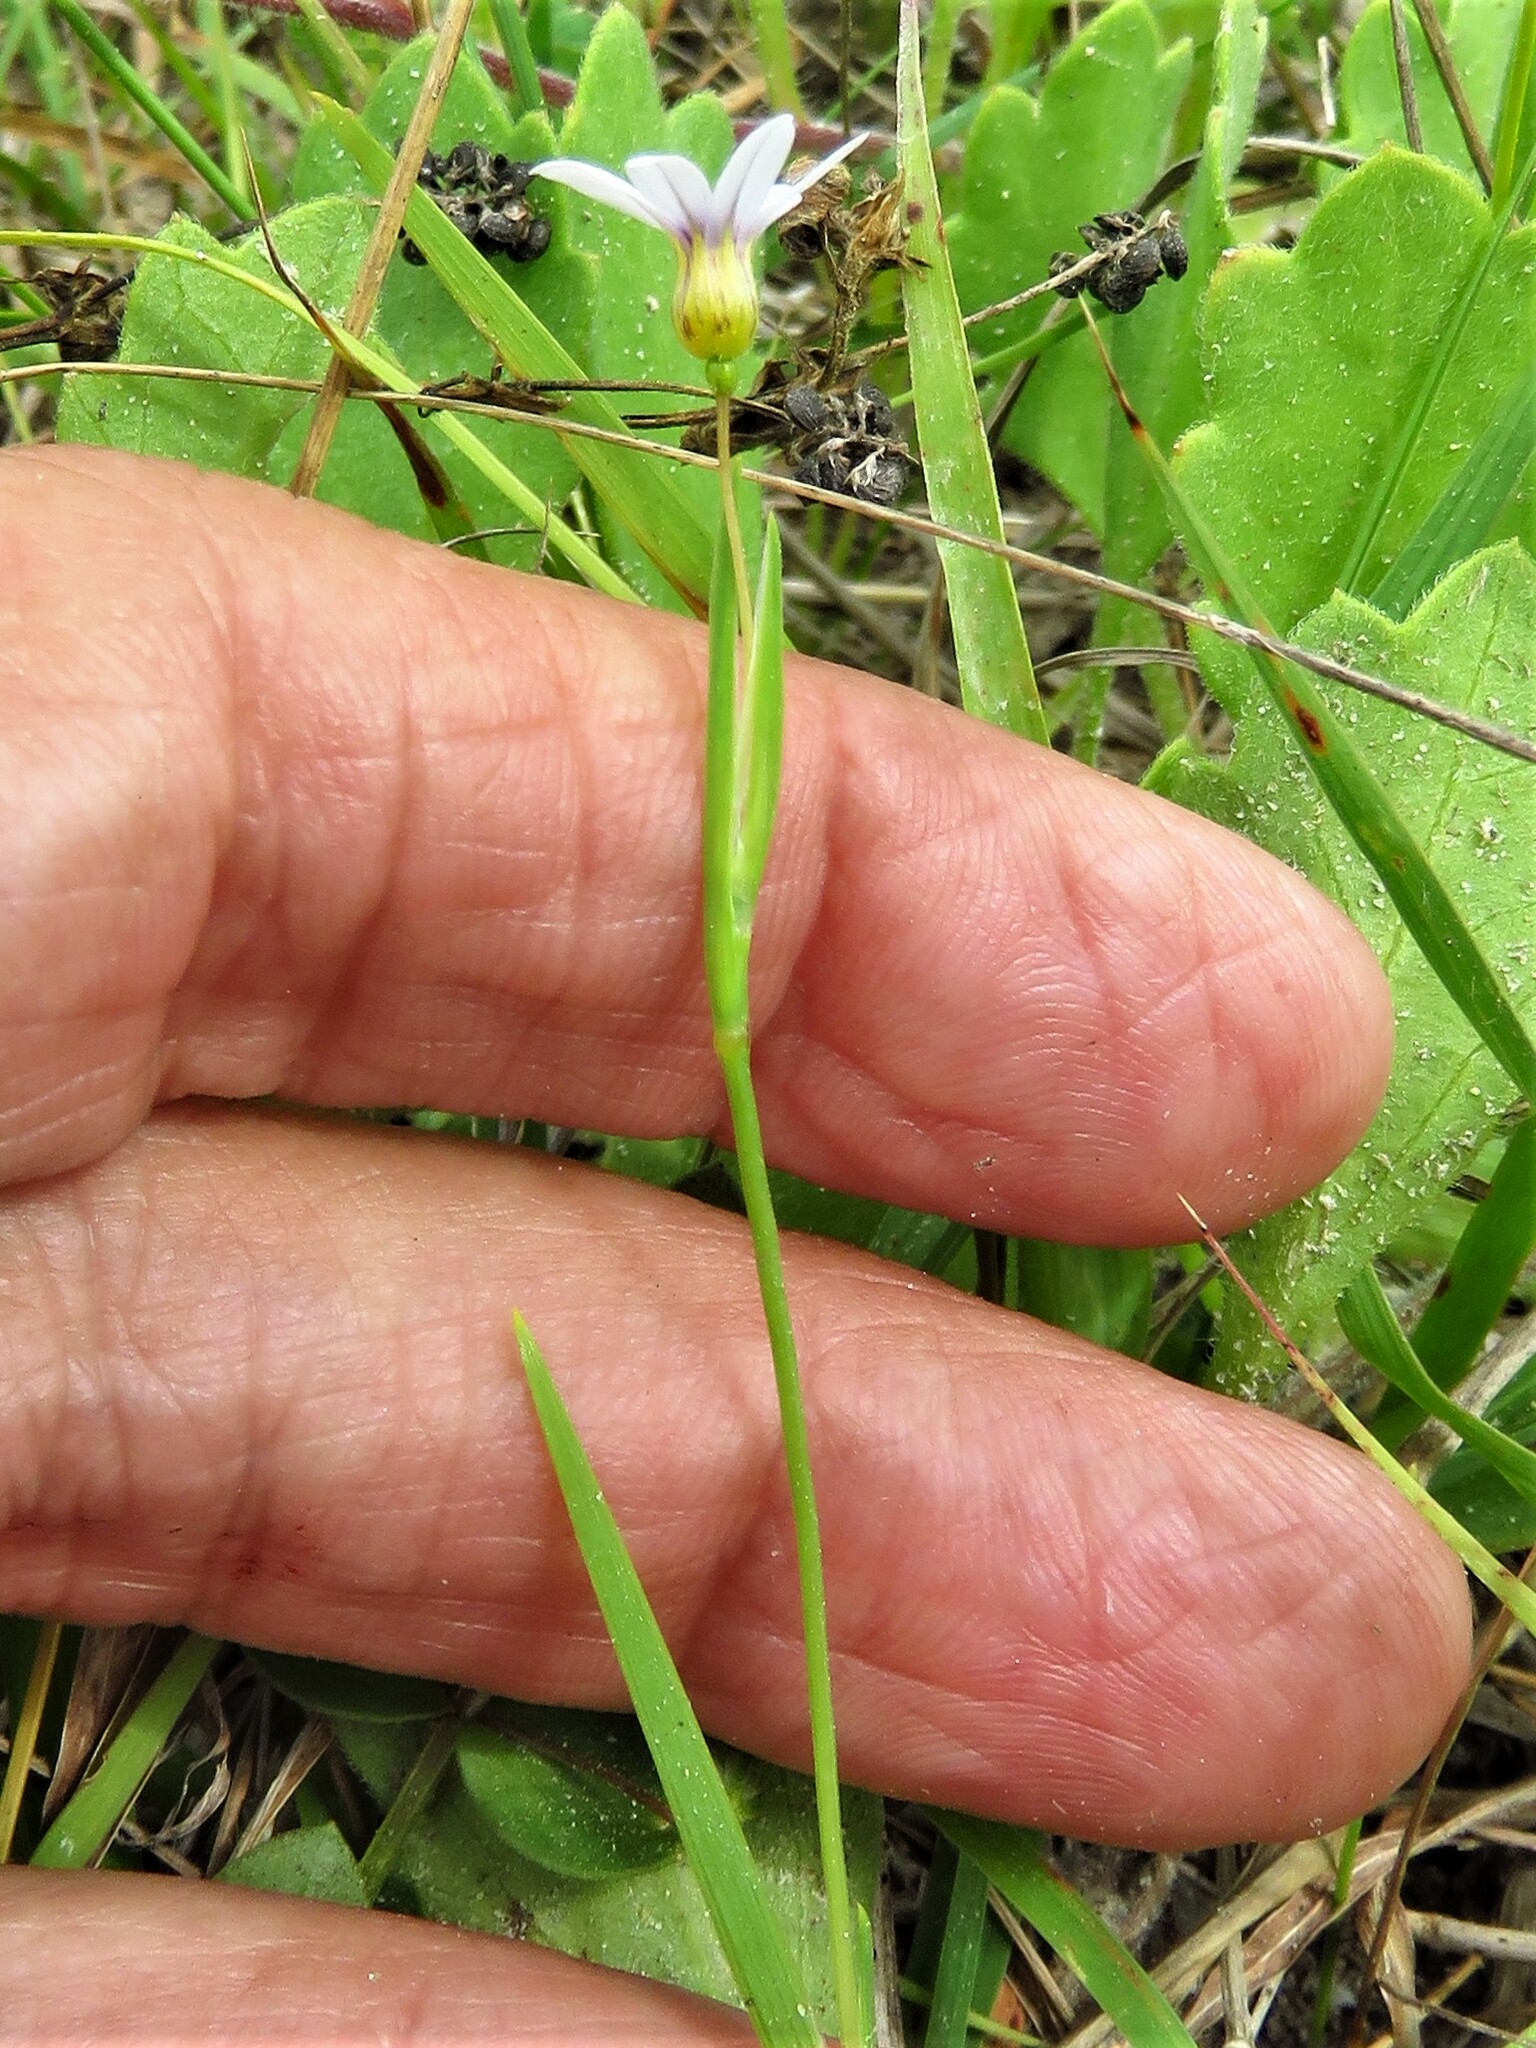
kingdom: Plantae
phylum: Tracheophyta
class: Liliopsida
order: Asparagales
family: Iridaceae
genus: Sisyrinchium
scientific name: Sisyrinchium micranthum
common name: Bermuda pigroot
